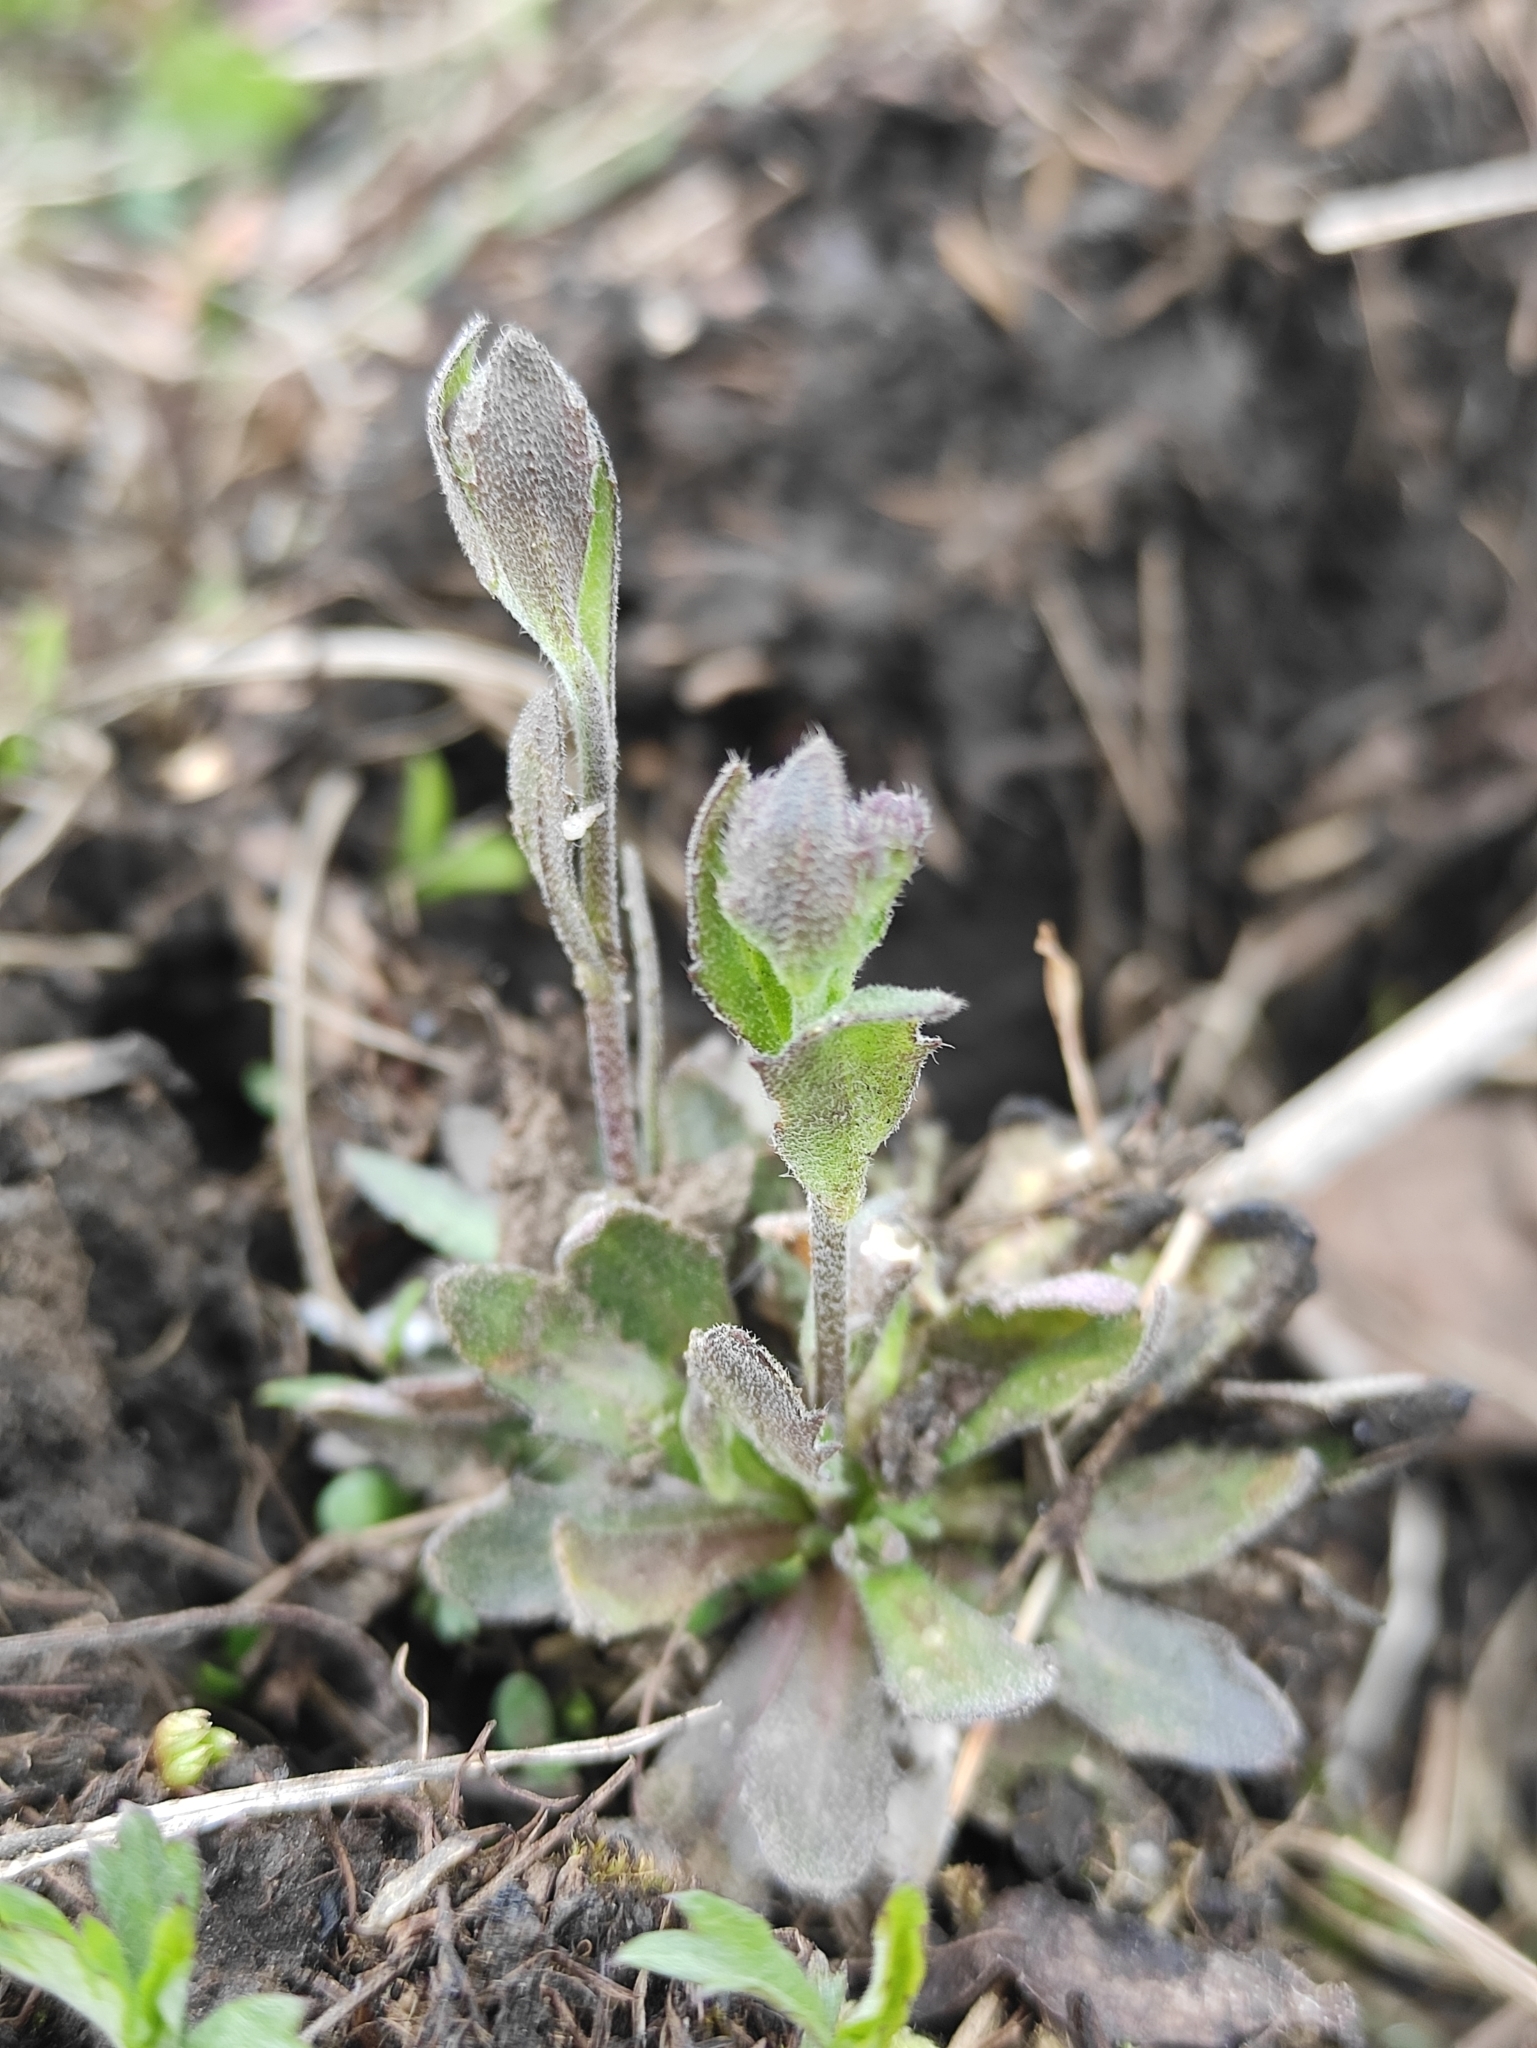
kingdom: Plantae
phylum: Tracheophyta
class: Magnoliopsida
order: Brassicales
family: Brassicaceae
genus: Draba
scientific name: Draba nemorosa
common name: Wood whitlow-grass
